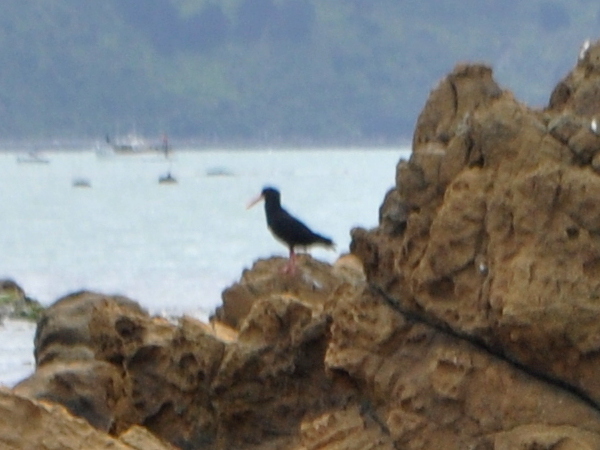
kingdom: Animalia
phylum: Chordata
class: Aves
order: Charadriiformes
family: Haematopodidae
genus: Haematopus
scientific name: Haematopus unicolor
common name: Variable oystercatcher
